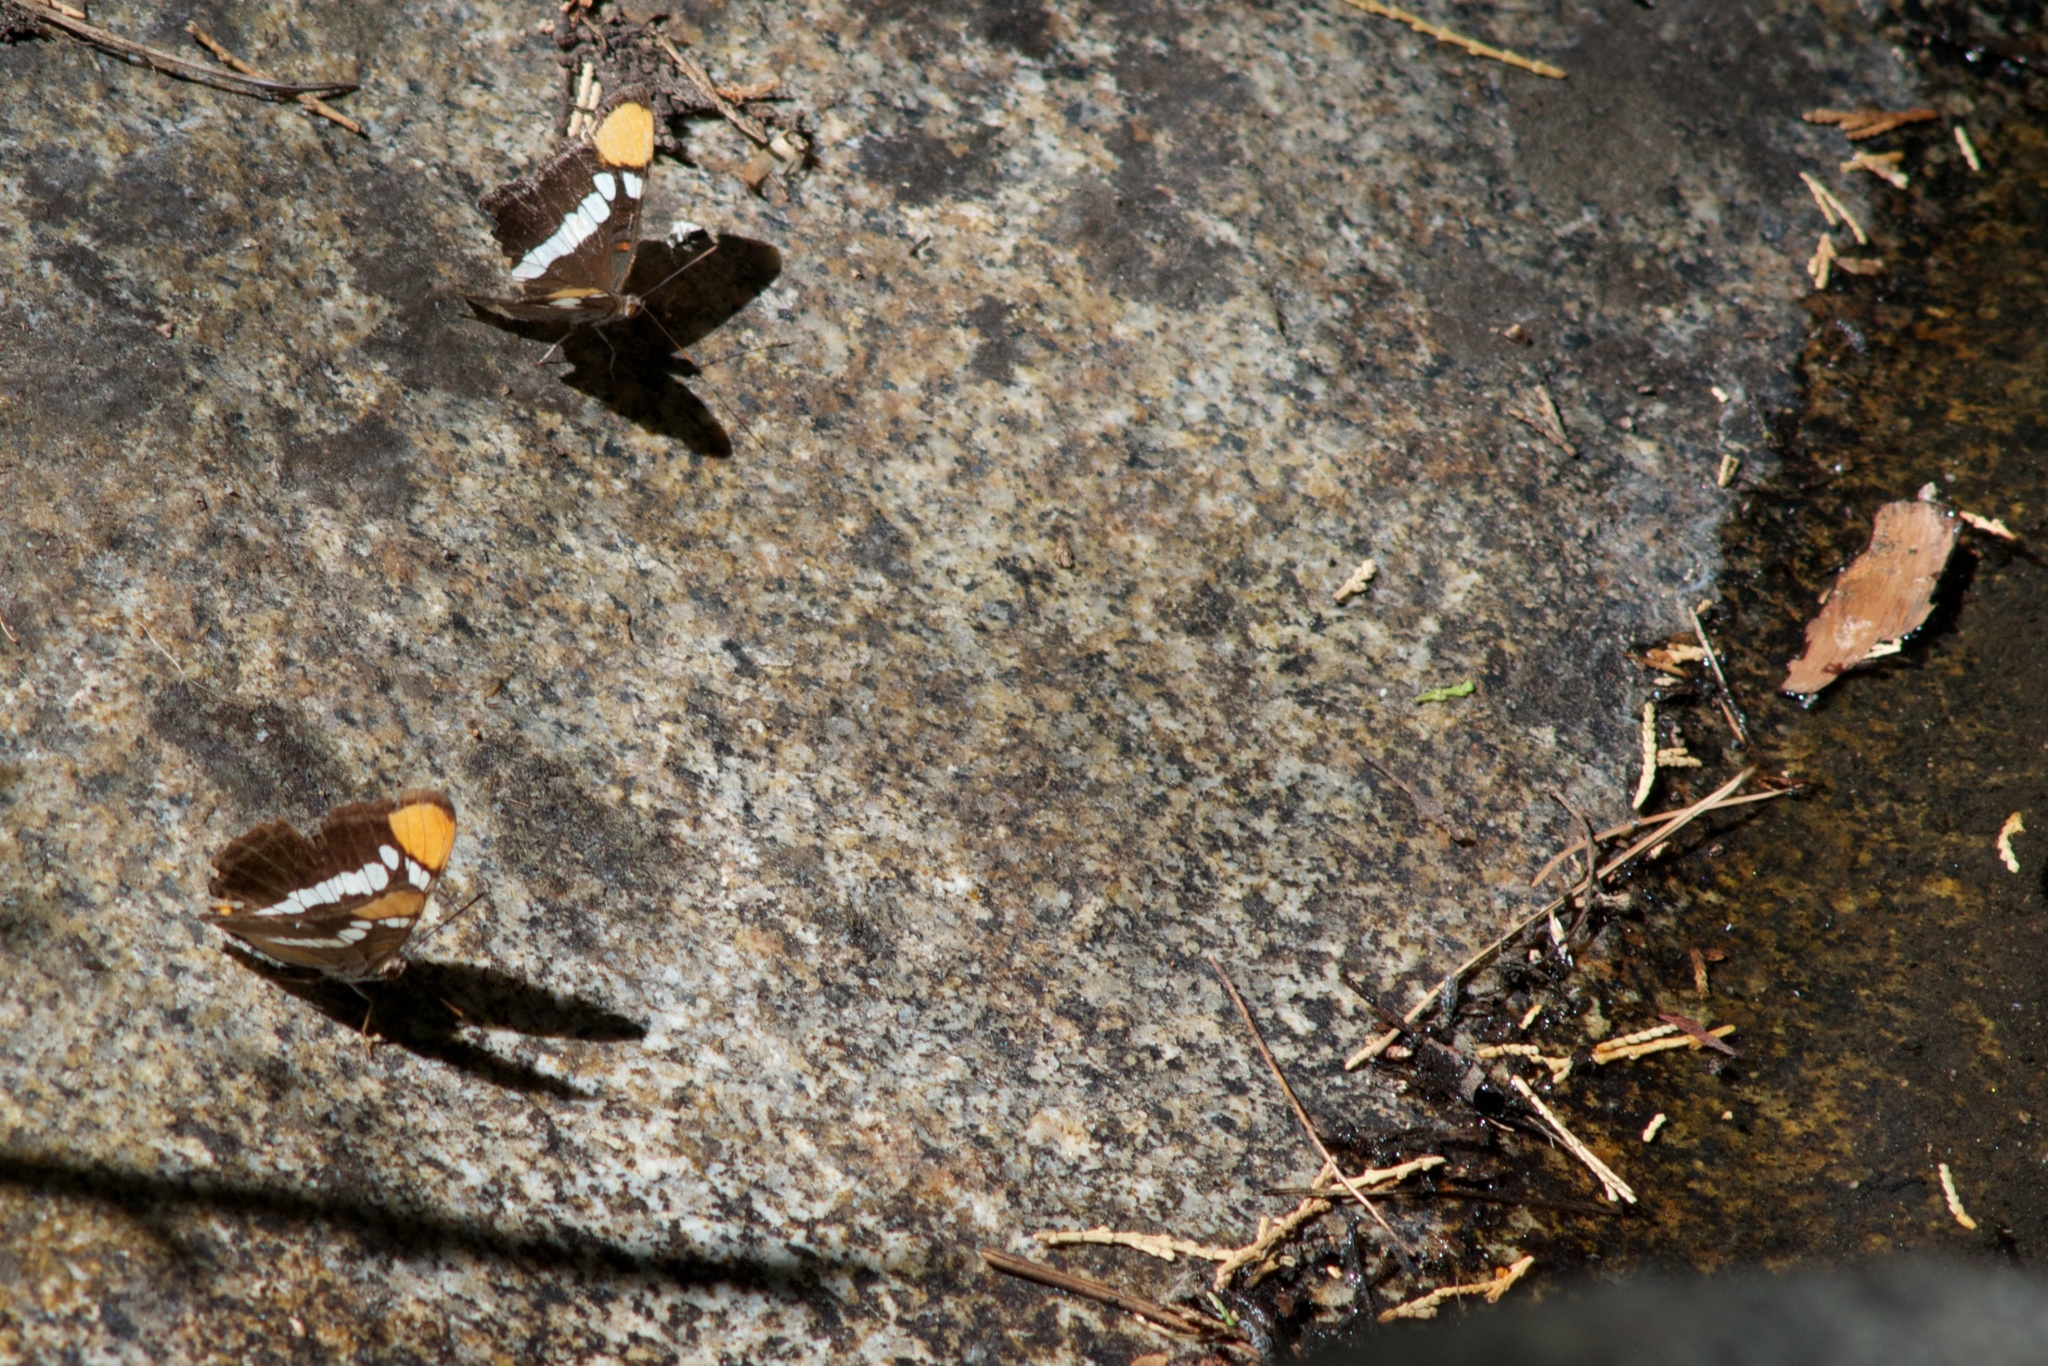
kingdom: Animalia
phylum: Arthropoda
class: Insecta
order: Lepidoptera
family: Nymphalidae
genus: Limenitis
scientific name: Limenitis bredowii
